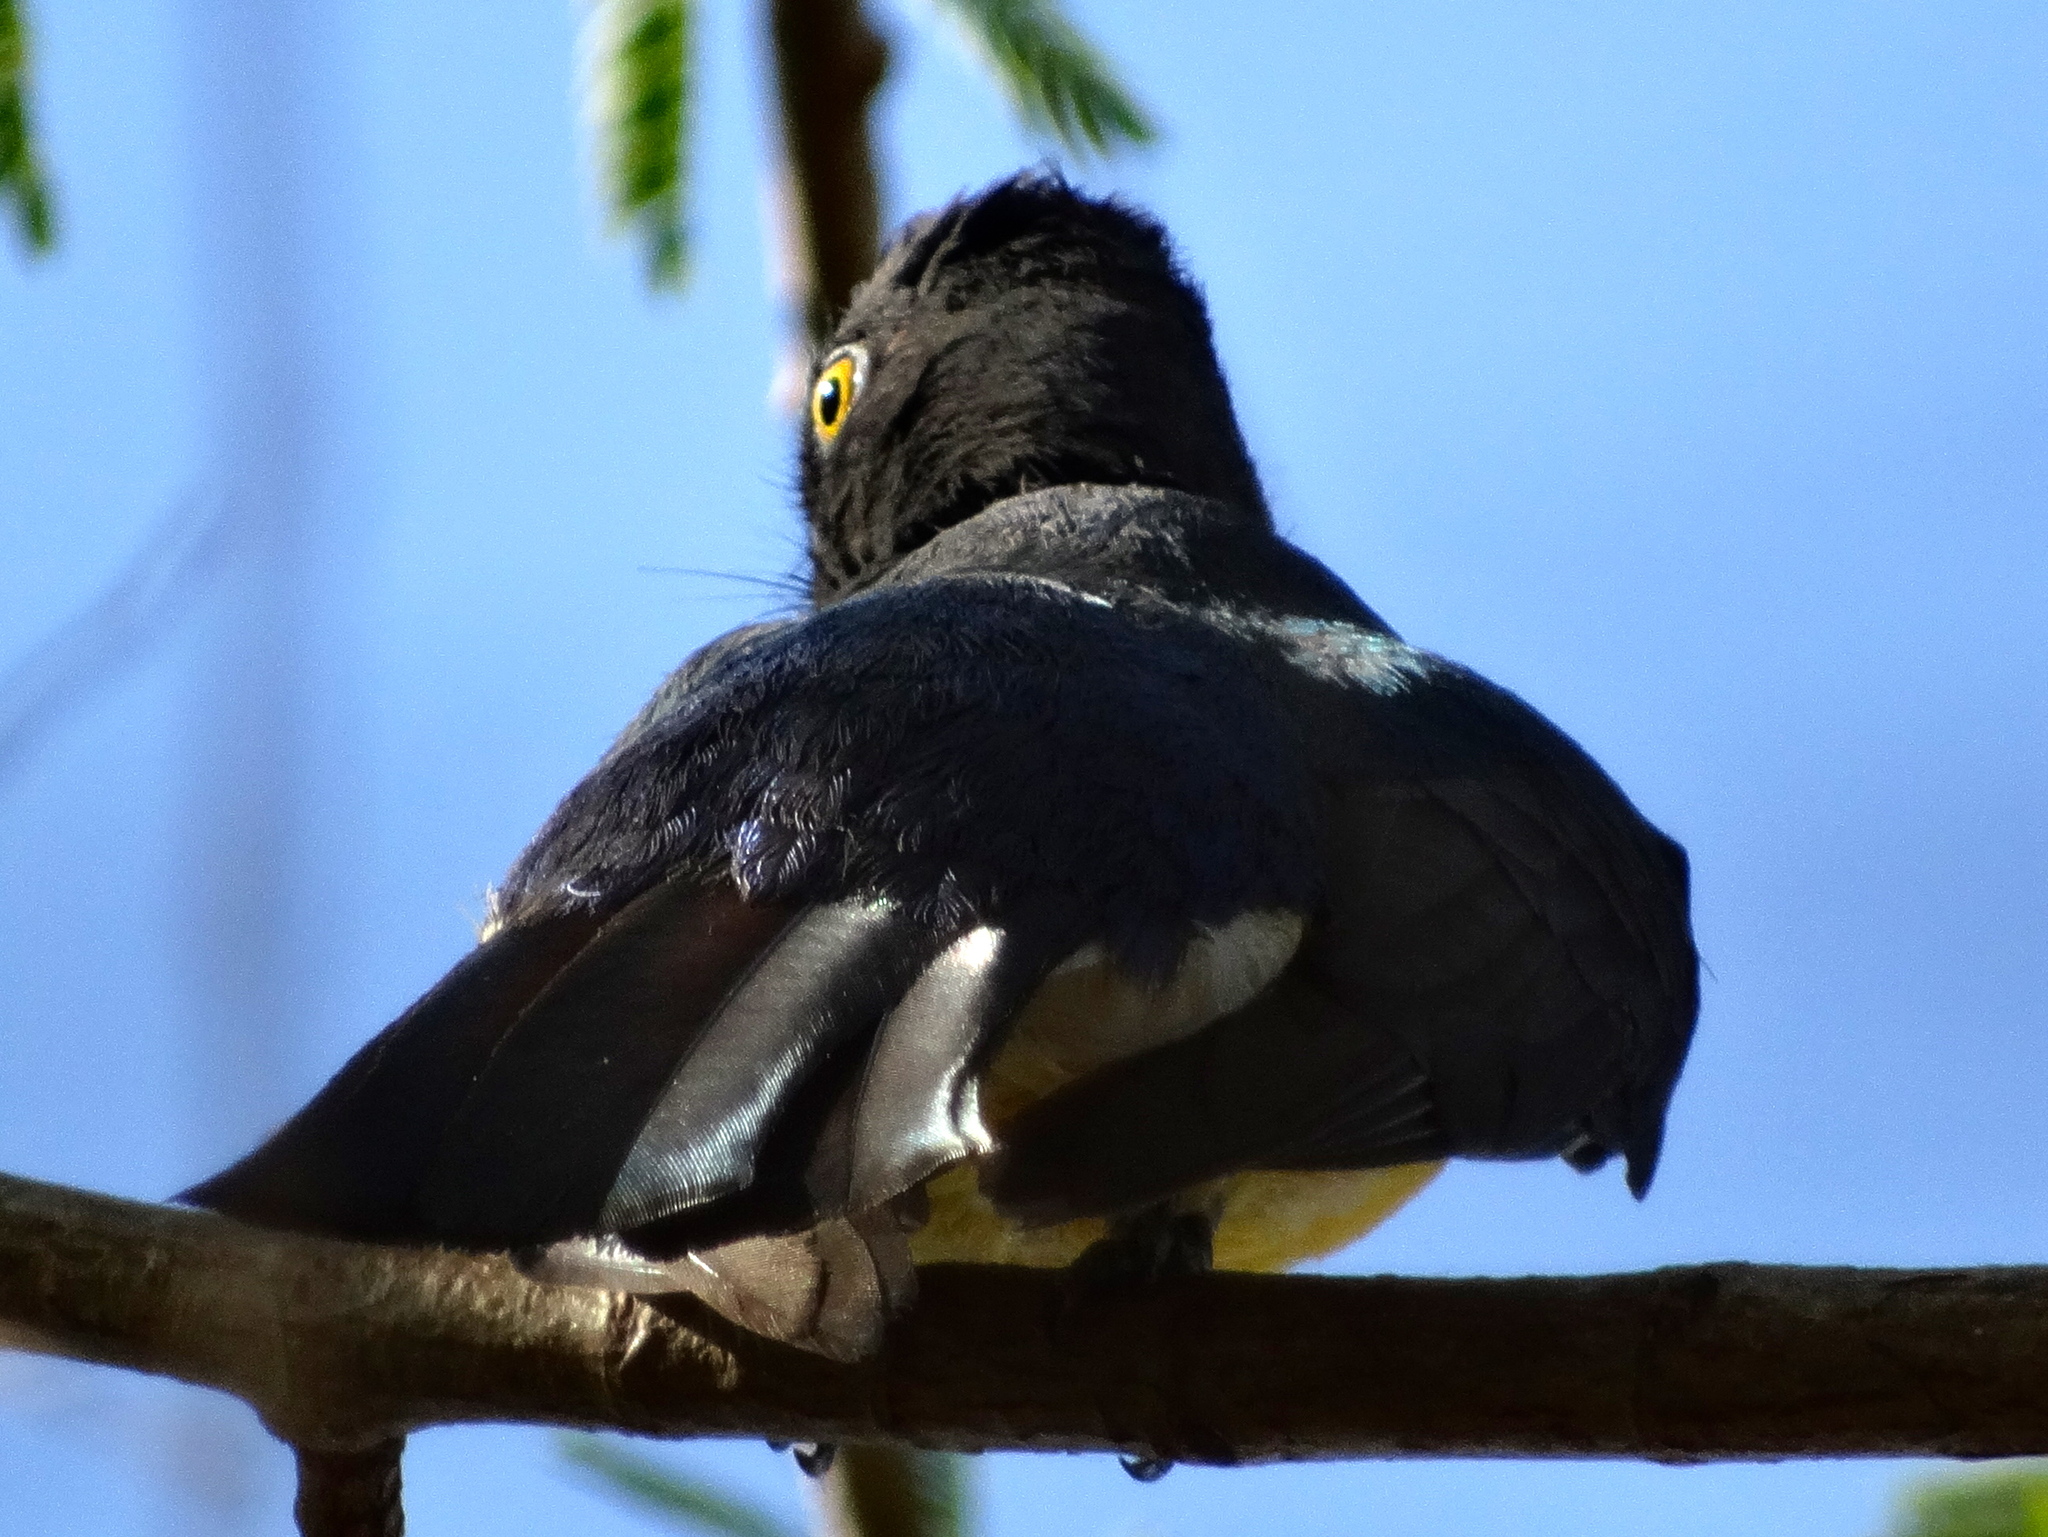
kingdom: Animalia
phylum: Chordata
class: Aves
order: Trogoniformes
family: Trogonidae
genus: Trogon
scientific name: Trogon citreolus
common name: Citreoline trogon
